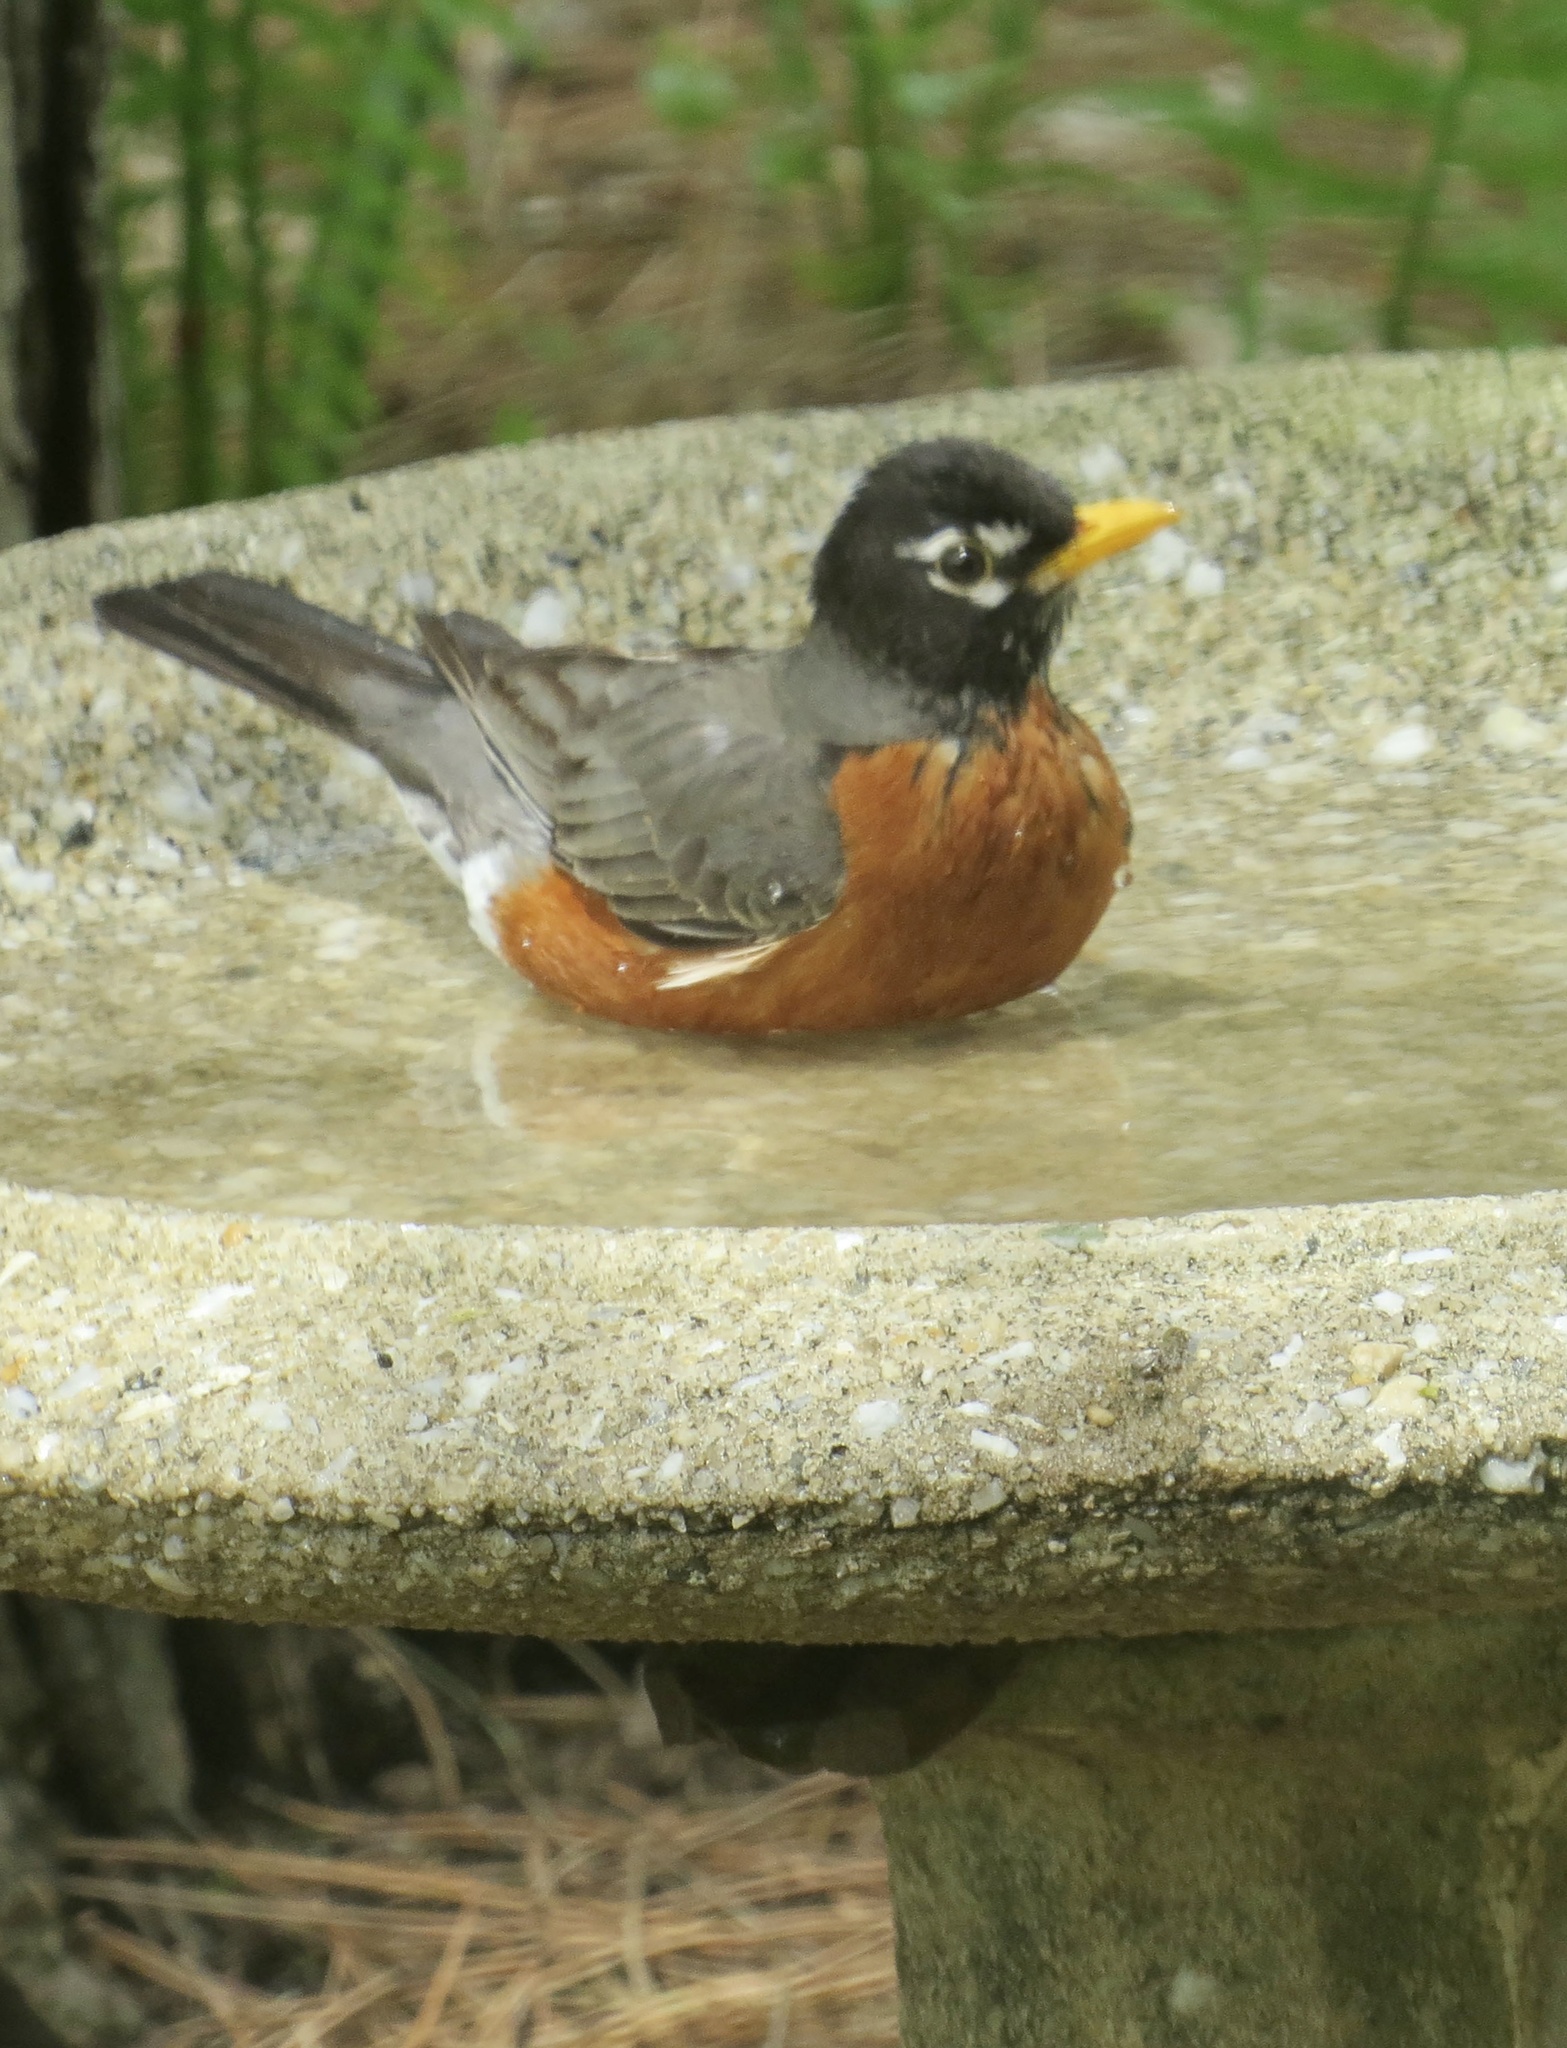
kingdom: Animalia
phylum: Chordata
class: Aves
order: Passeriformes
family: Turdidae
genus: Turdus
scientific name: Turdus migratorius
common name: American robin
